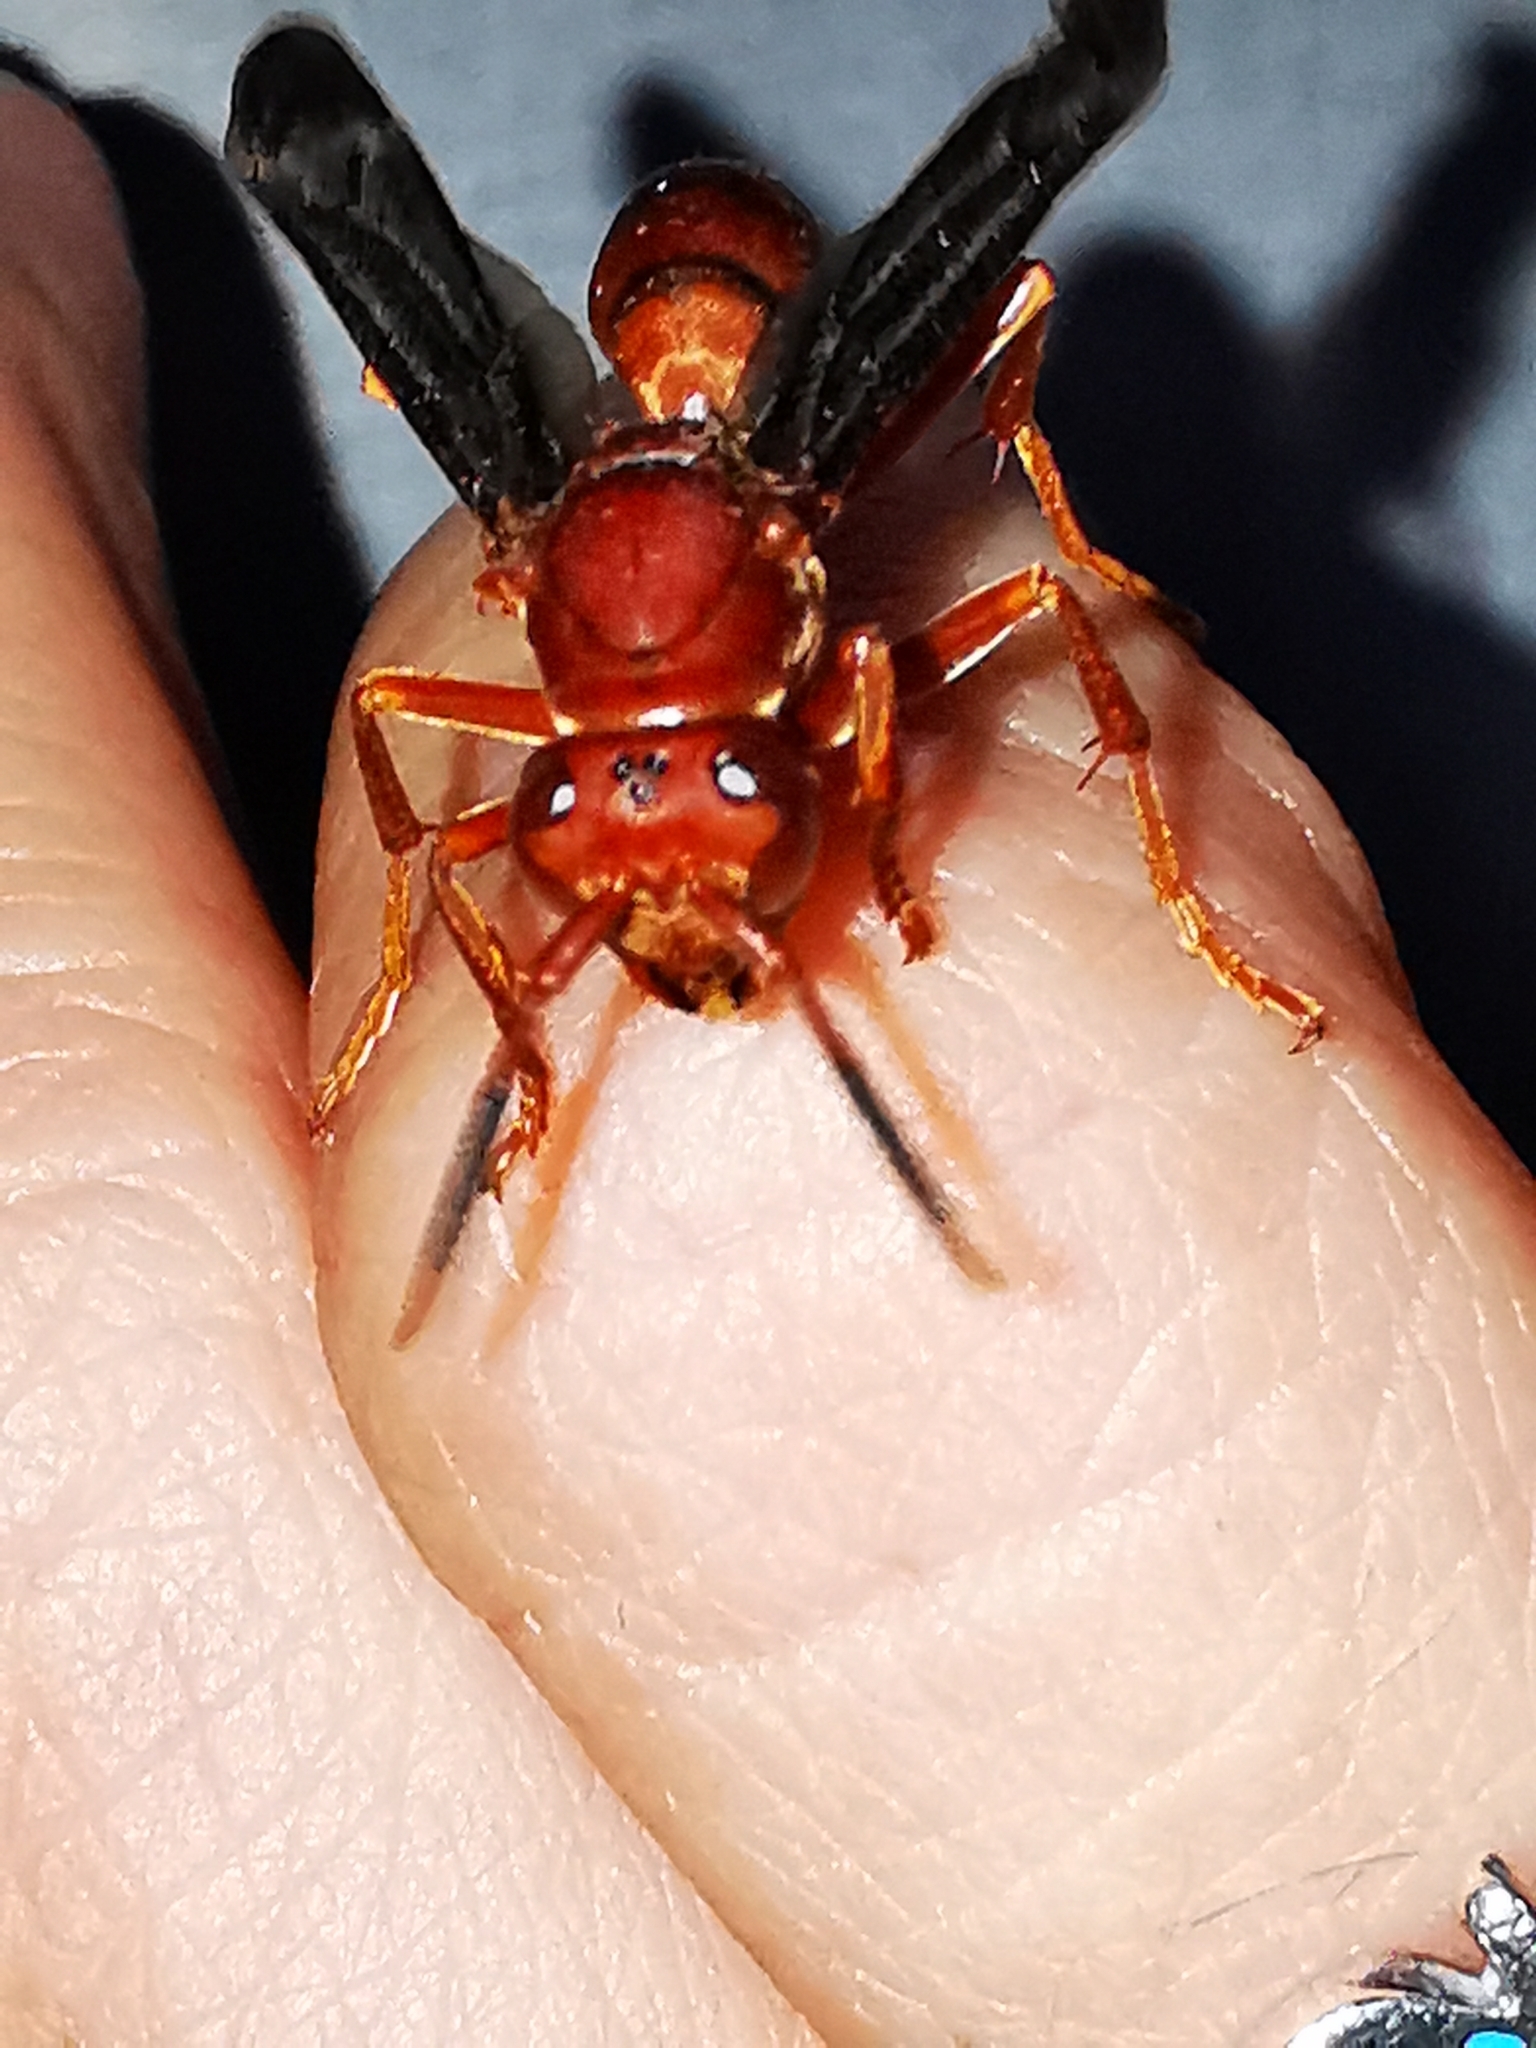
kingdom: Animalia
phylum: Arthropoda
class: Insecta
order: Hymenoptera
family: Eumenidae
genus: Polistes
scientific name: Polistes canadensis
